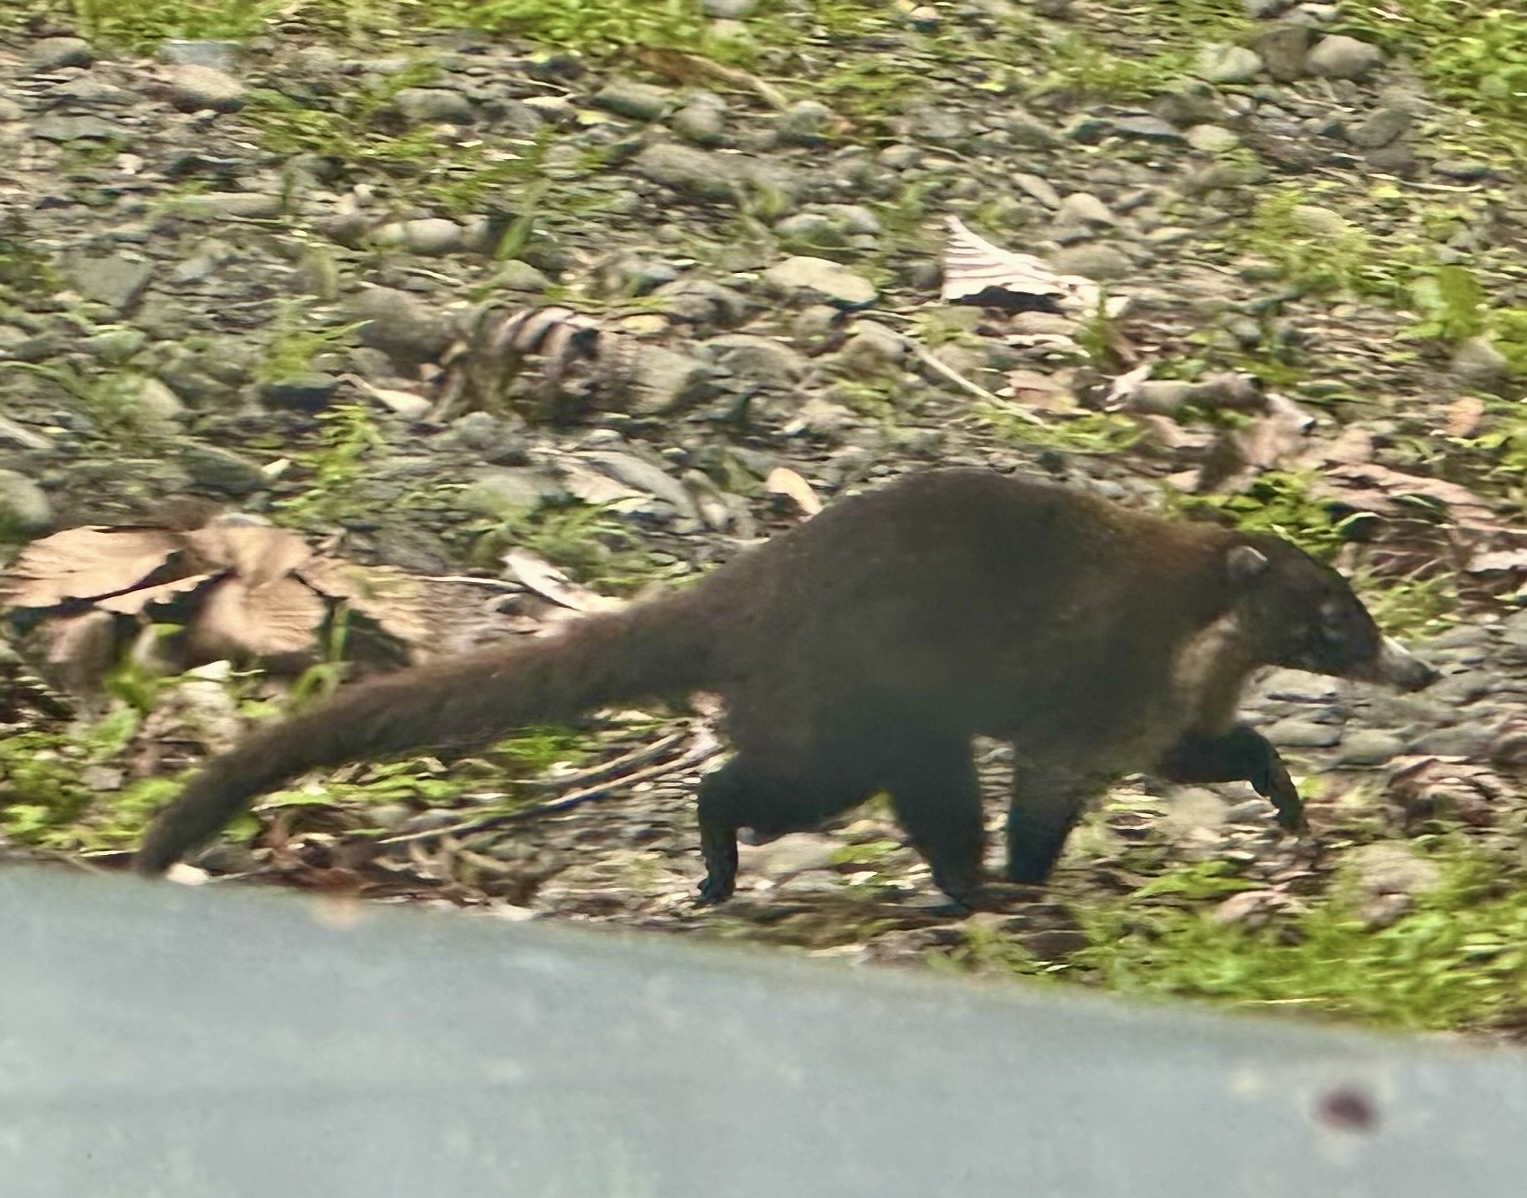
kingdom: Animalia
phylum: Chordata
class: Mammalia
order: Carnivora
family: Procyonidae
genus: Nasua
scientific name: Nasua narica
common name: White-nosed coati
